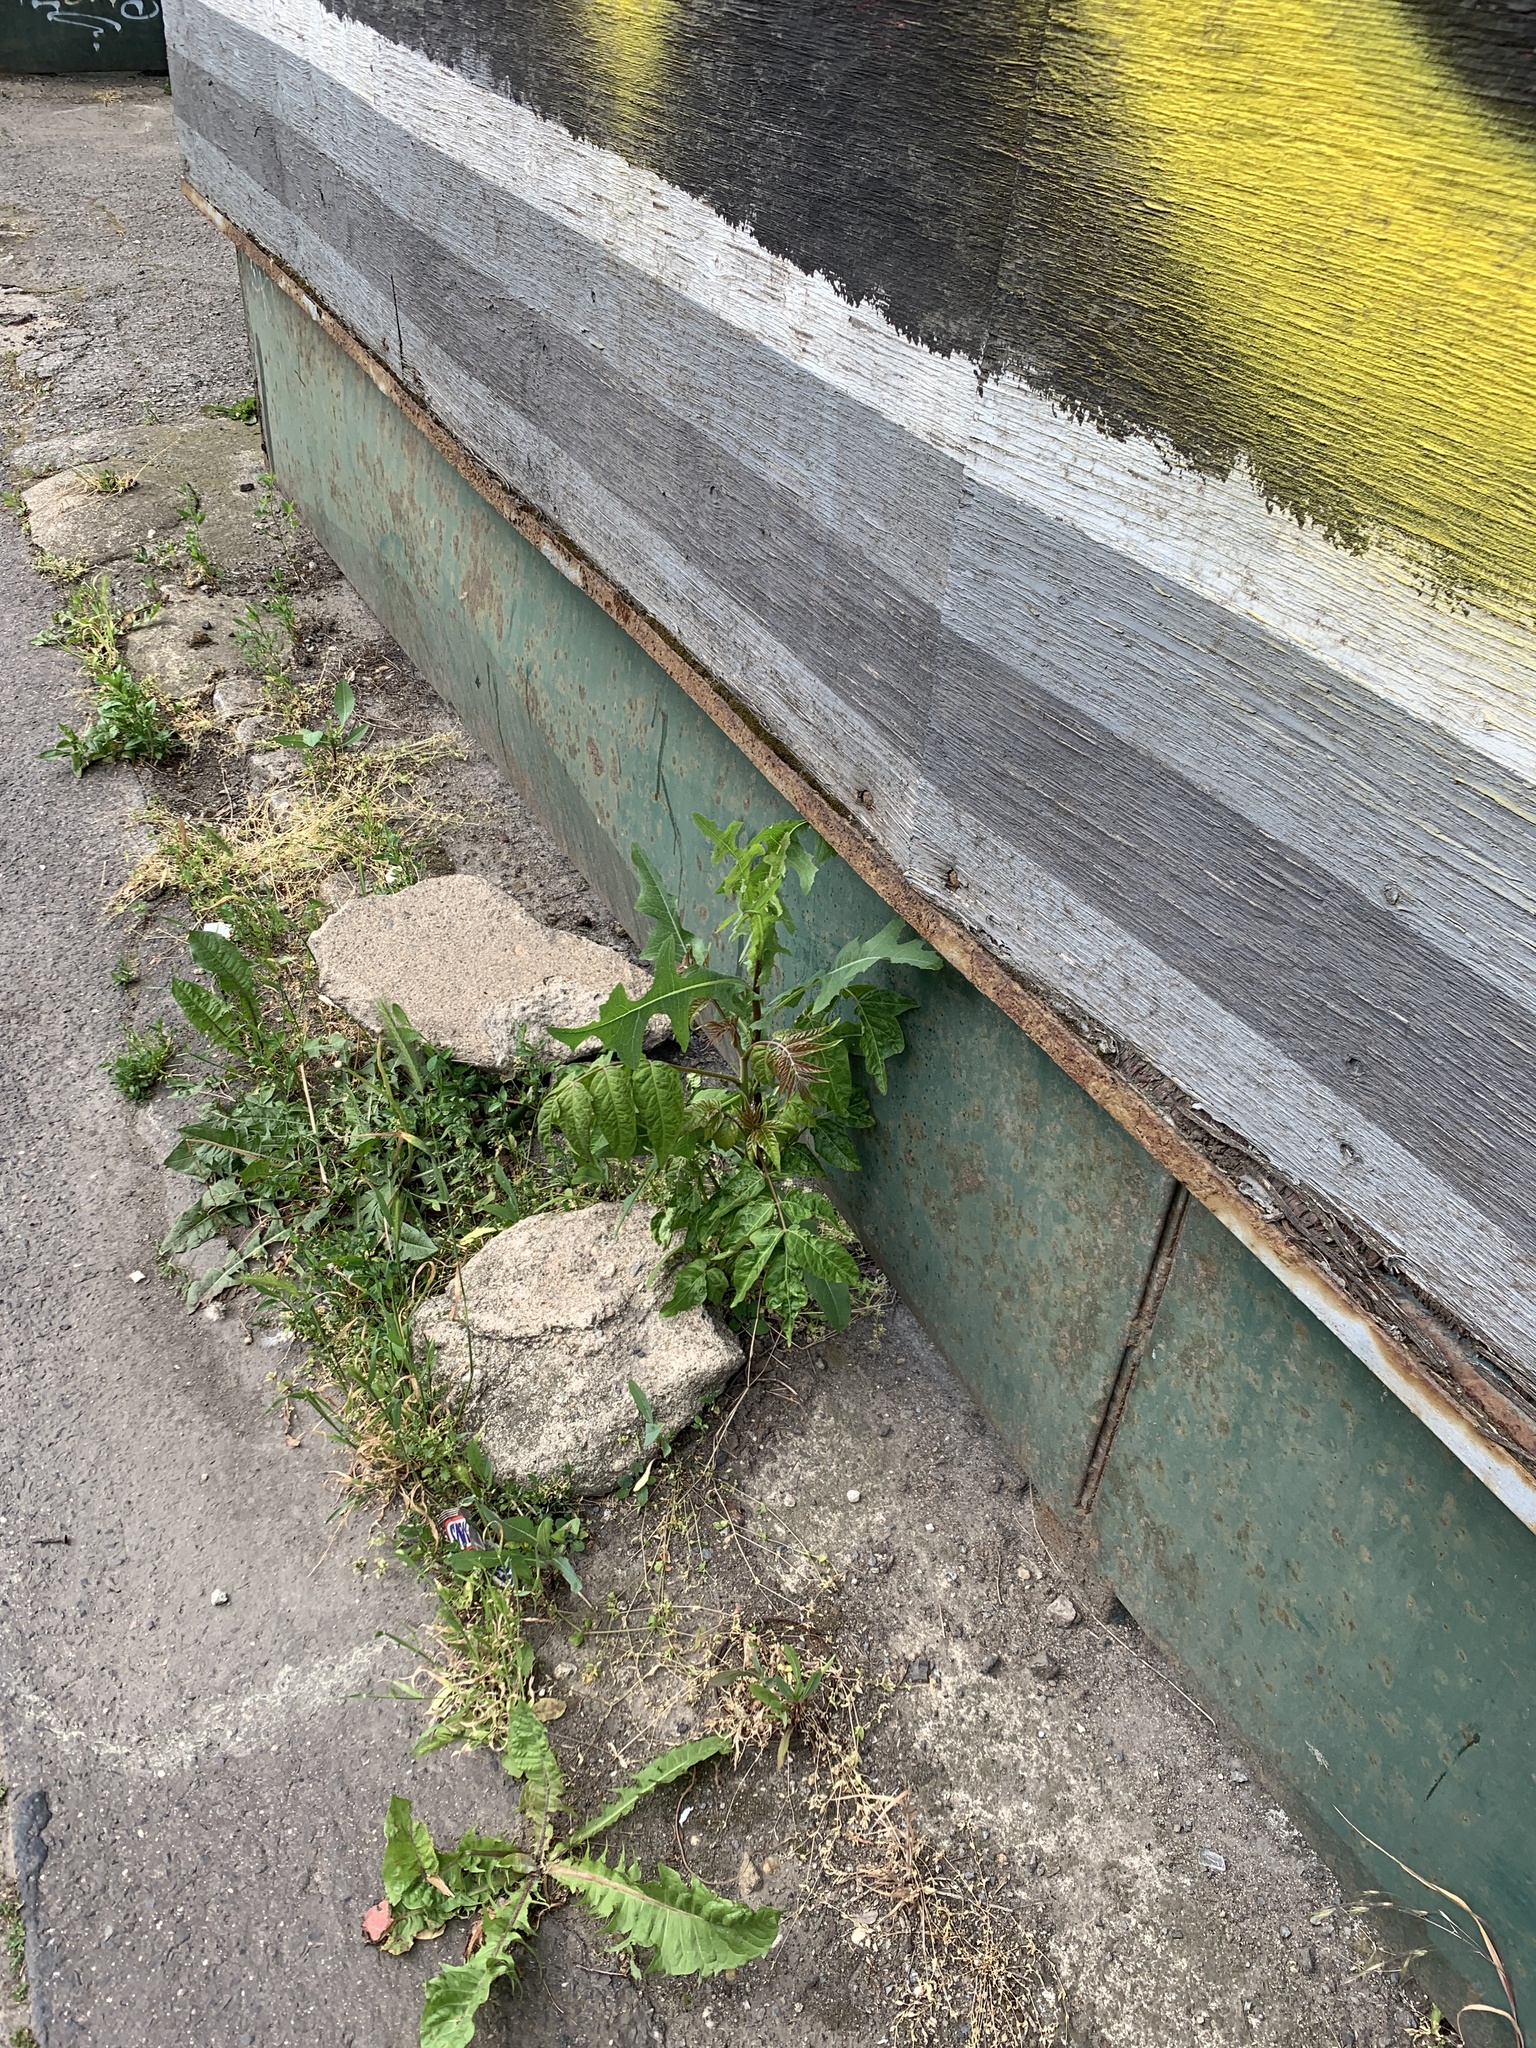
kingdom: Plantae
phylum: Tracheophyta
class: Magnoliopsida
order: Sapindales
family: Simaroubaceae
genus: Ailanthus
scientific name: Ailanthus altissima
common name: Tree-of-heaven
